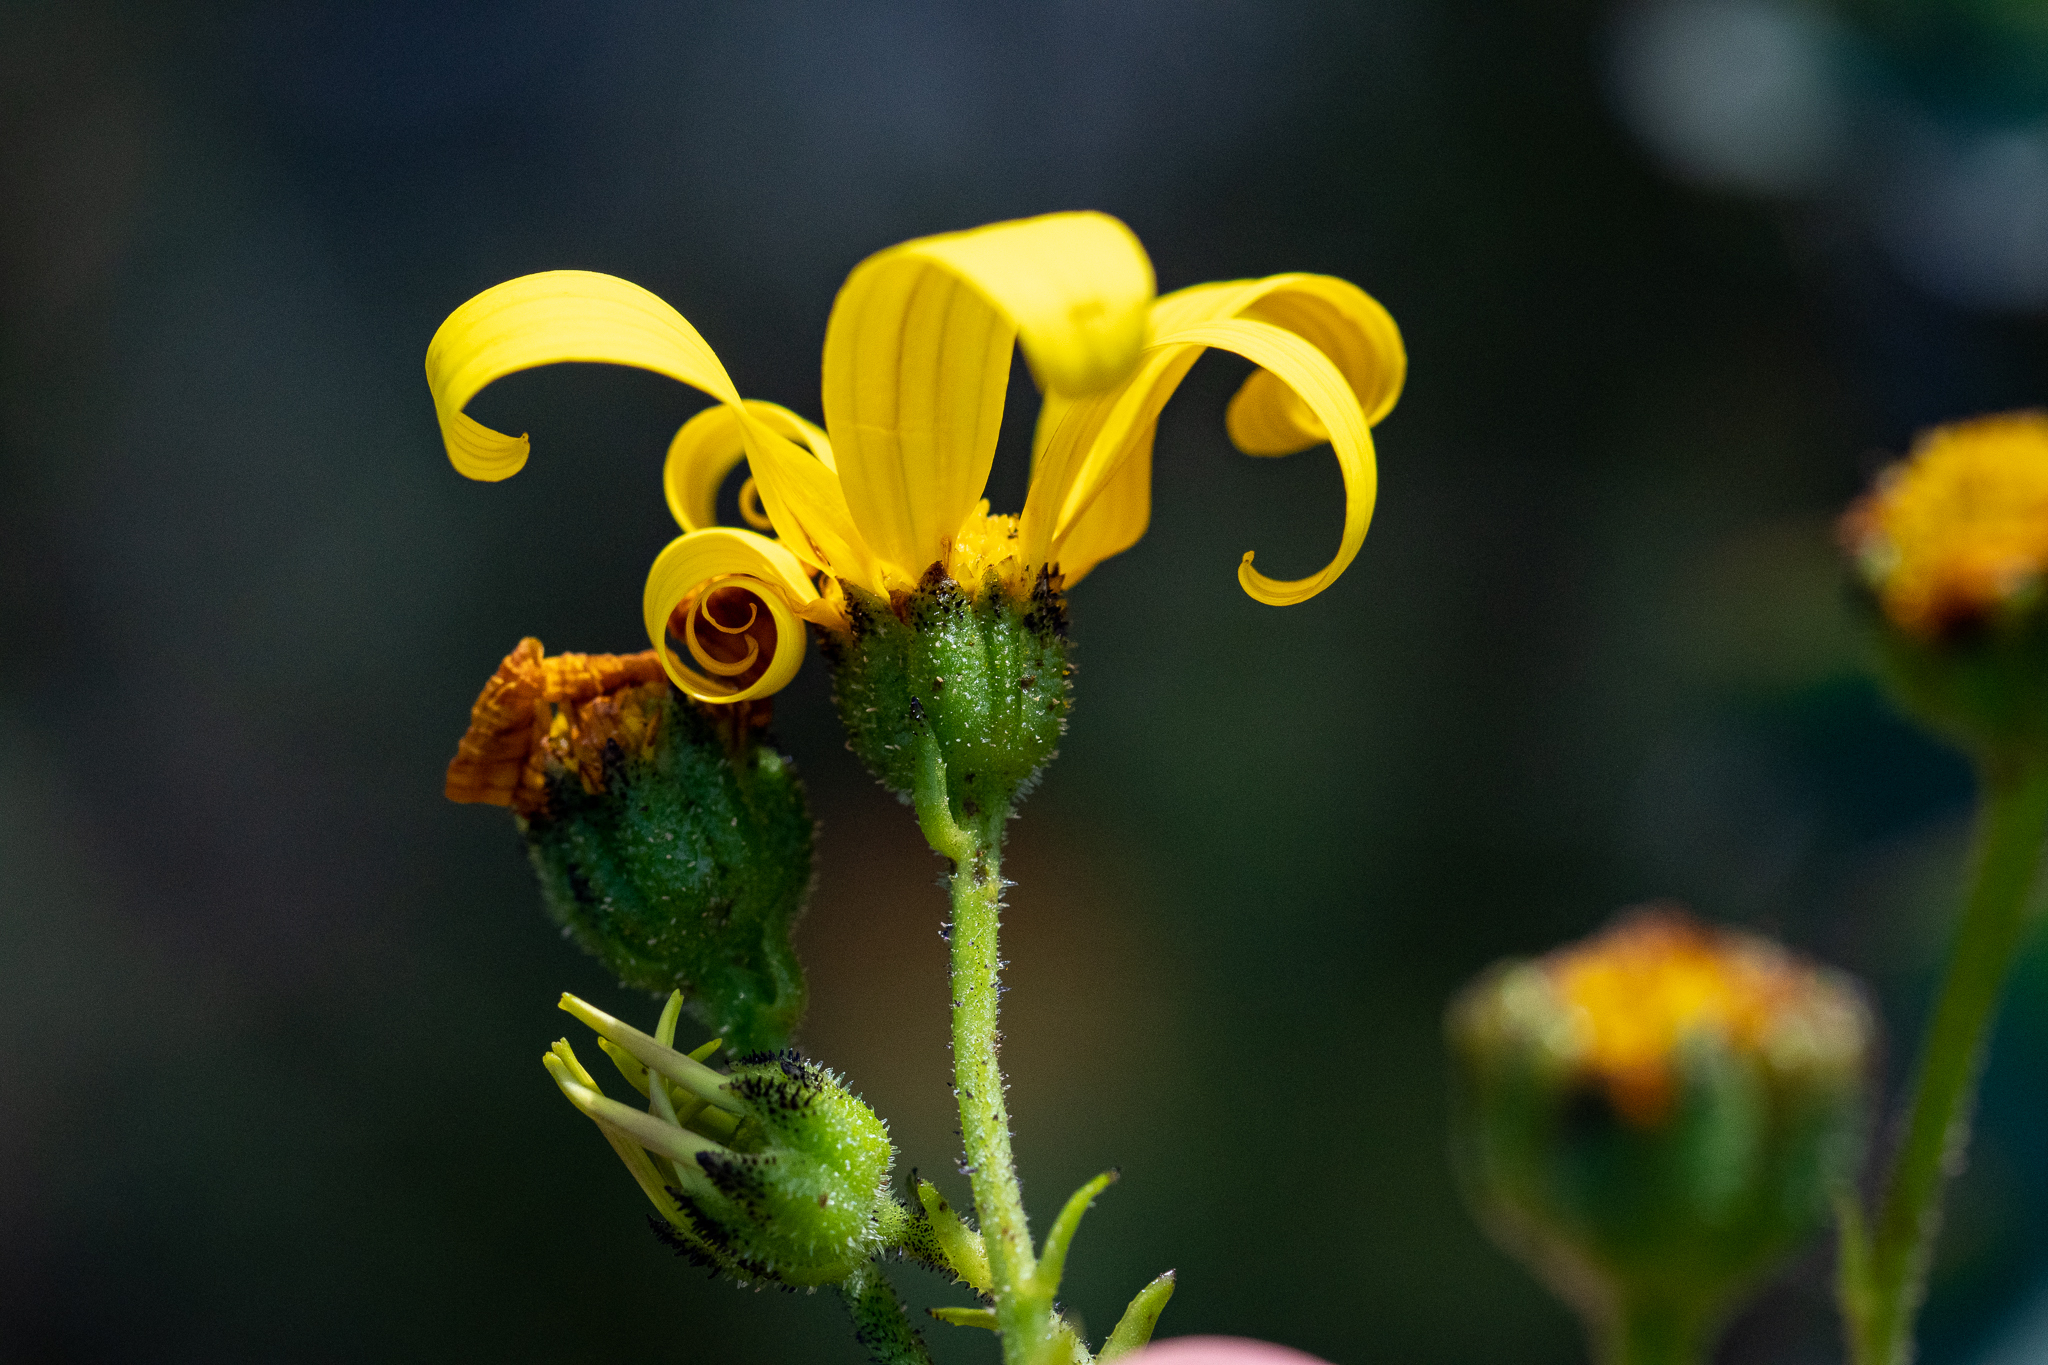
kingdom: Plantae
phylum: Tracheophyta
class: Magnoliopsida
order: Asterales
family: Asteraceae
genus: Osteospermum
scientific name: Osteospermum rotundifolium
